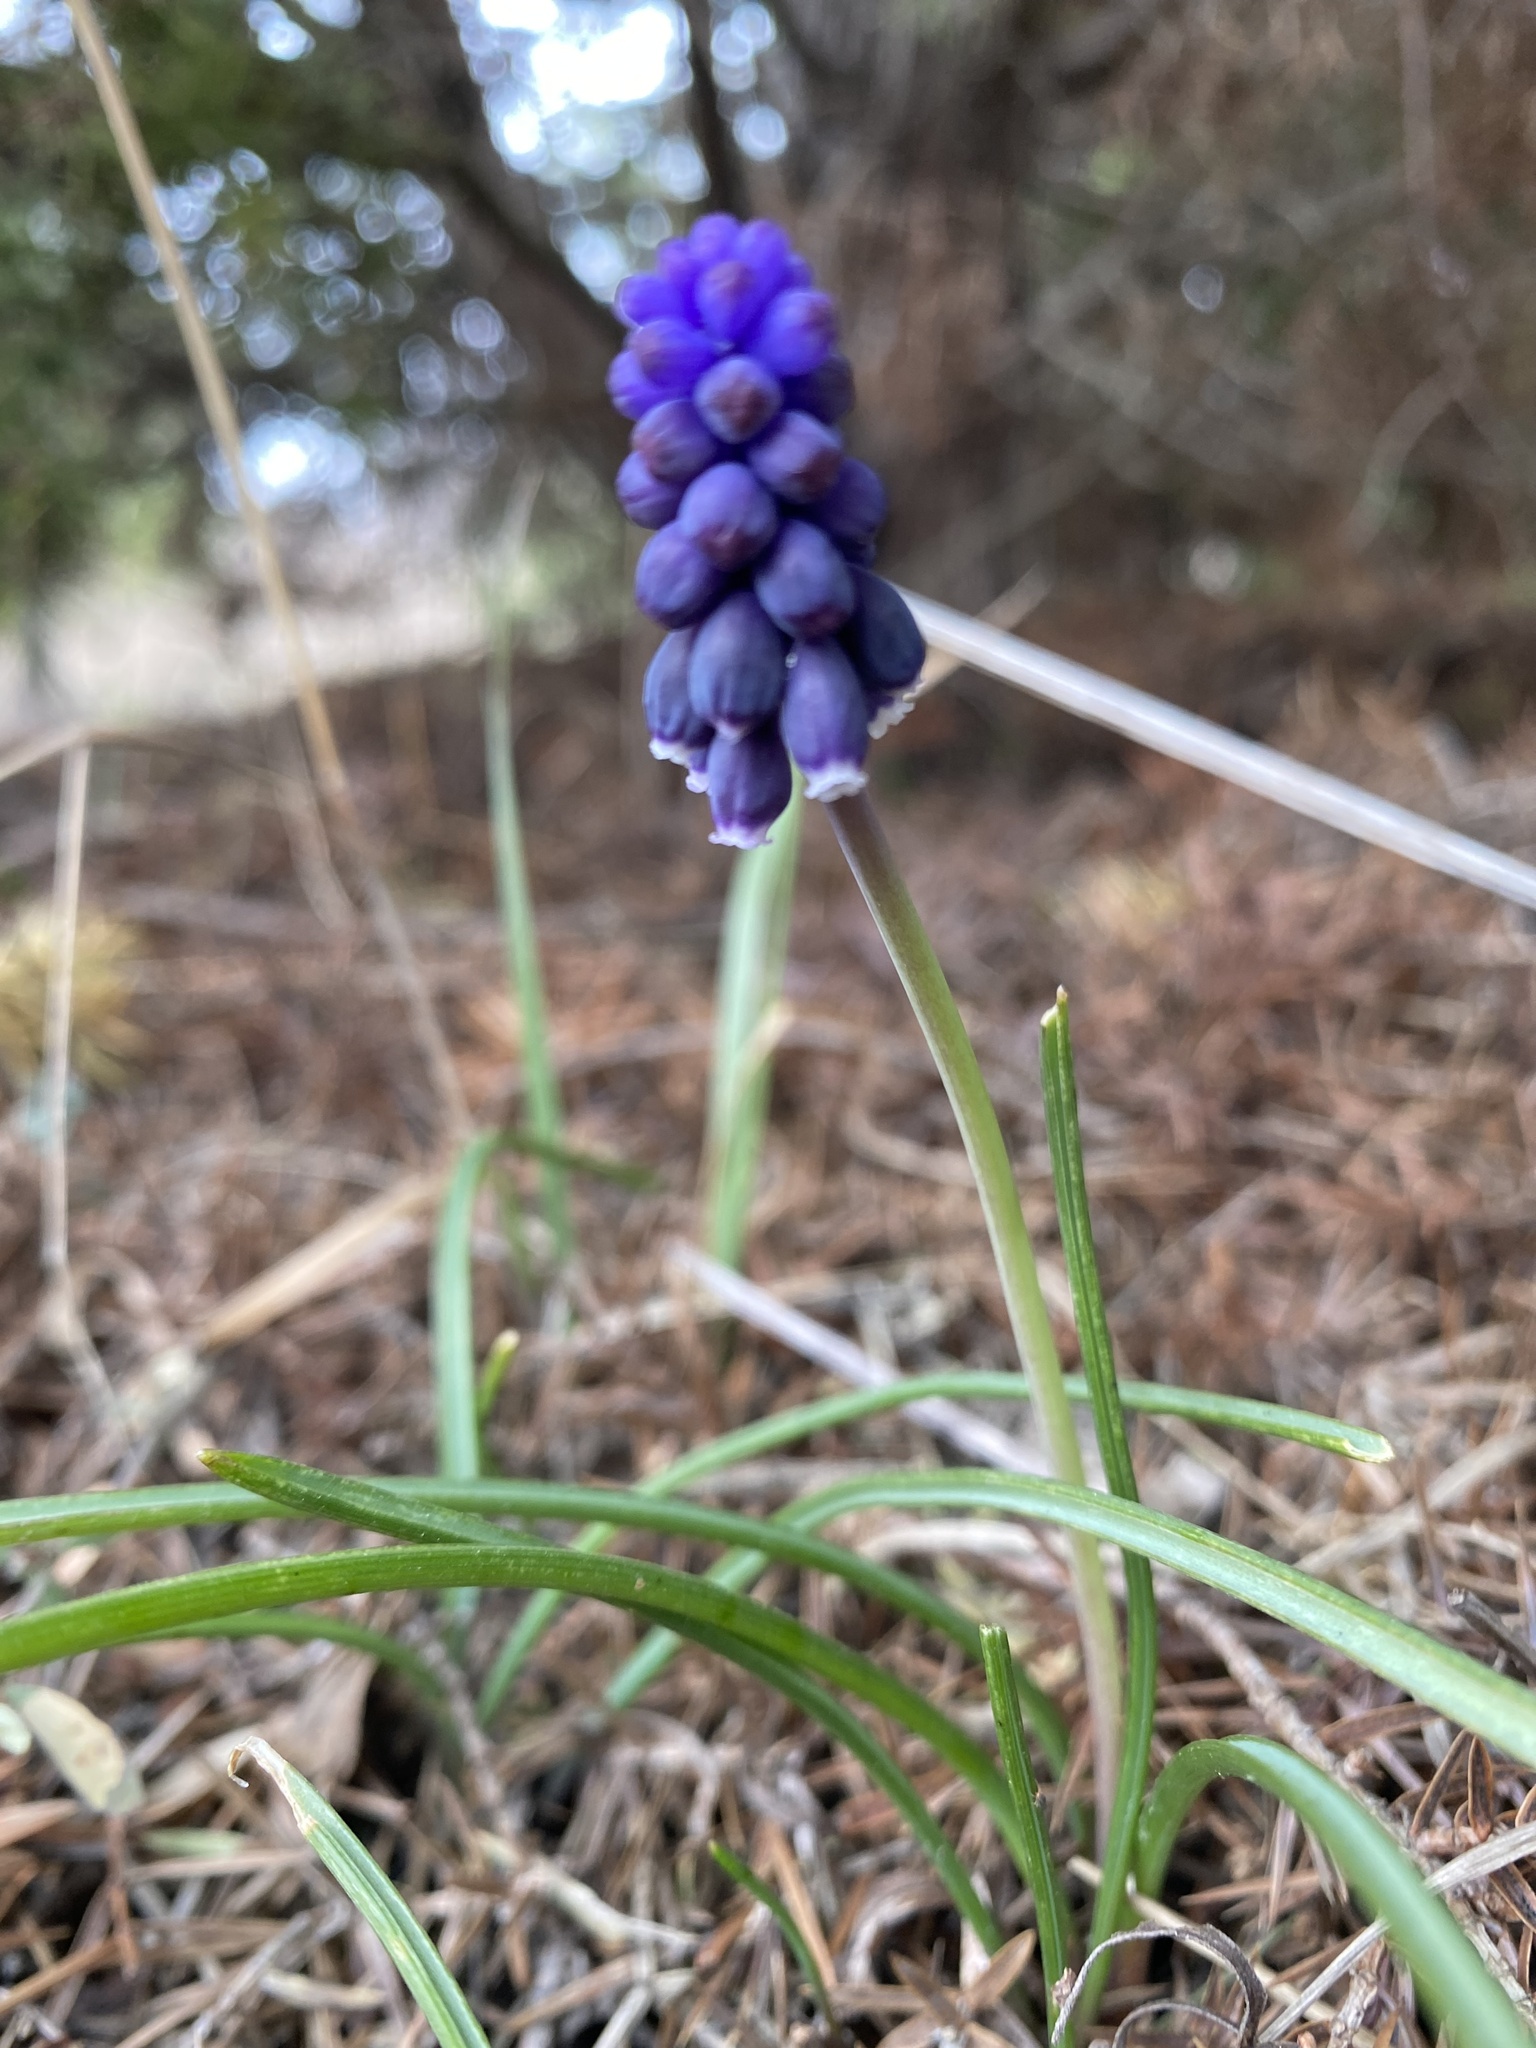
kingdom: Plantae
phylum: Tracheophyta
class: Liliopsida
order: Asparagales
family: Asparagaceae
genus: Muscari
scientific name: Muscari neglectum
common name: Grape-hyacinth
